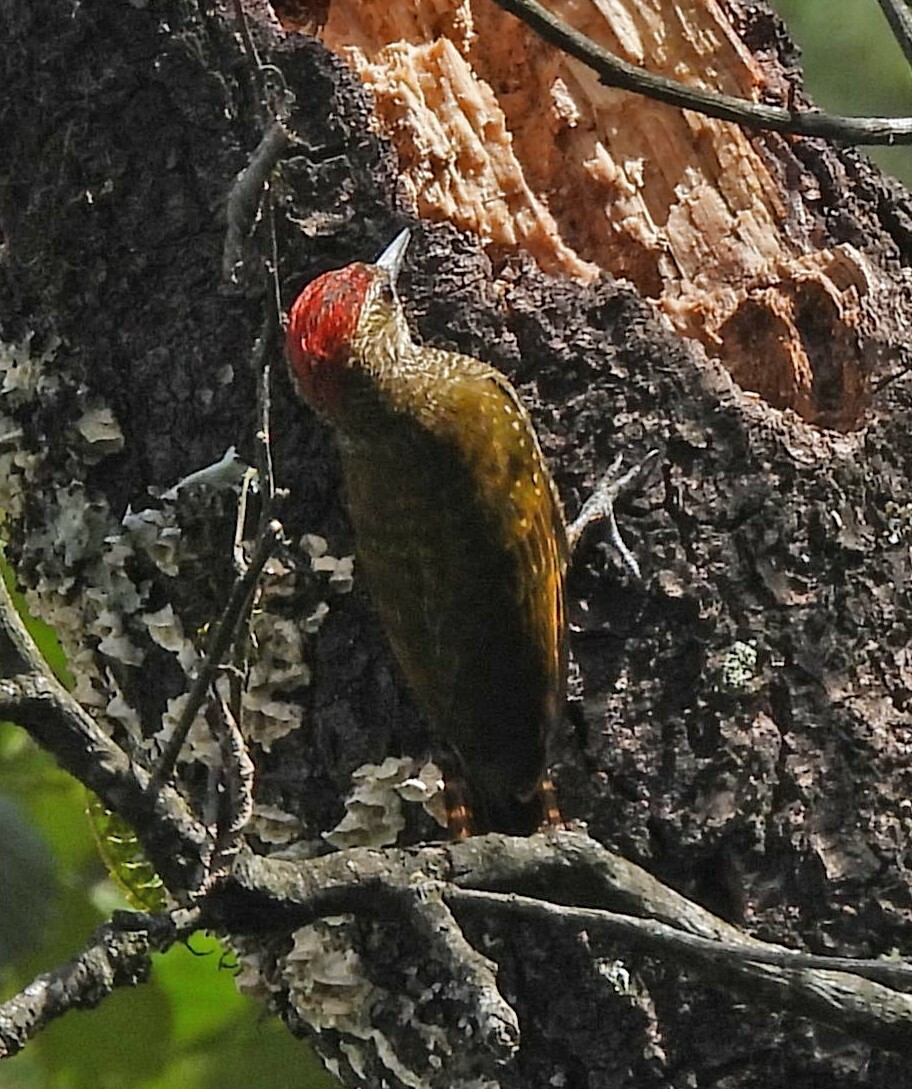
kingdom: Animalia
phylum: Chordata
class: Aves
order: Piciformes
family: Picidae
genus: Veniliornis
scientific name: Veniliornis frontalis
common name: Dot-fronted woodpecker
